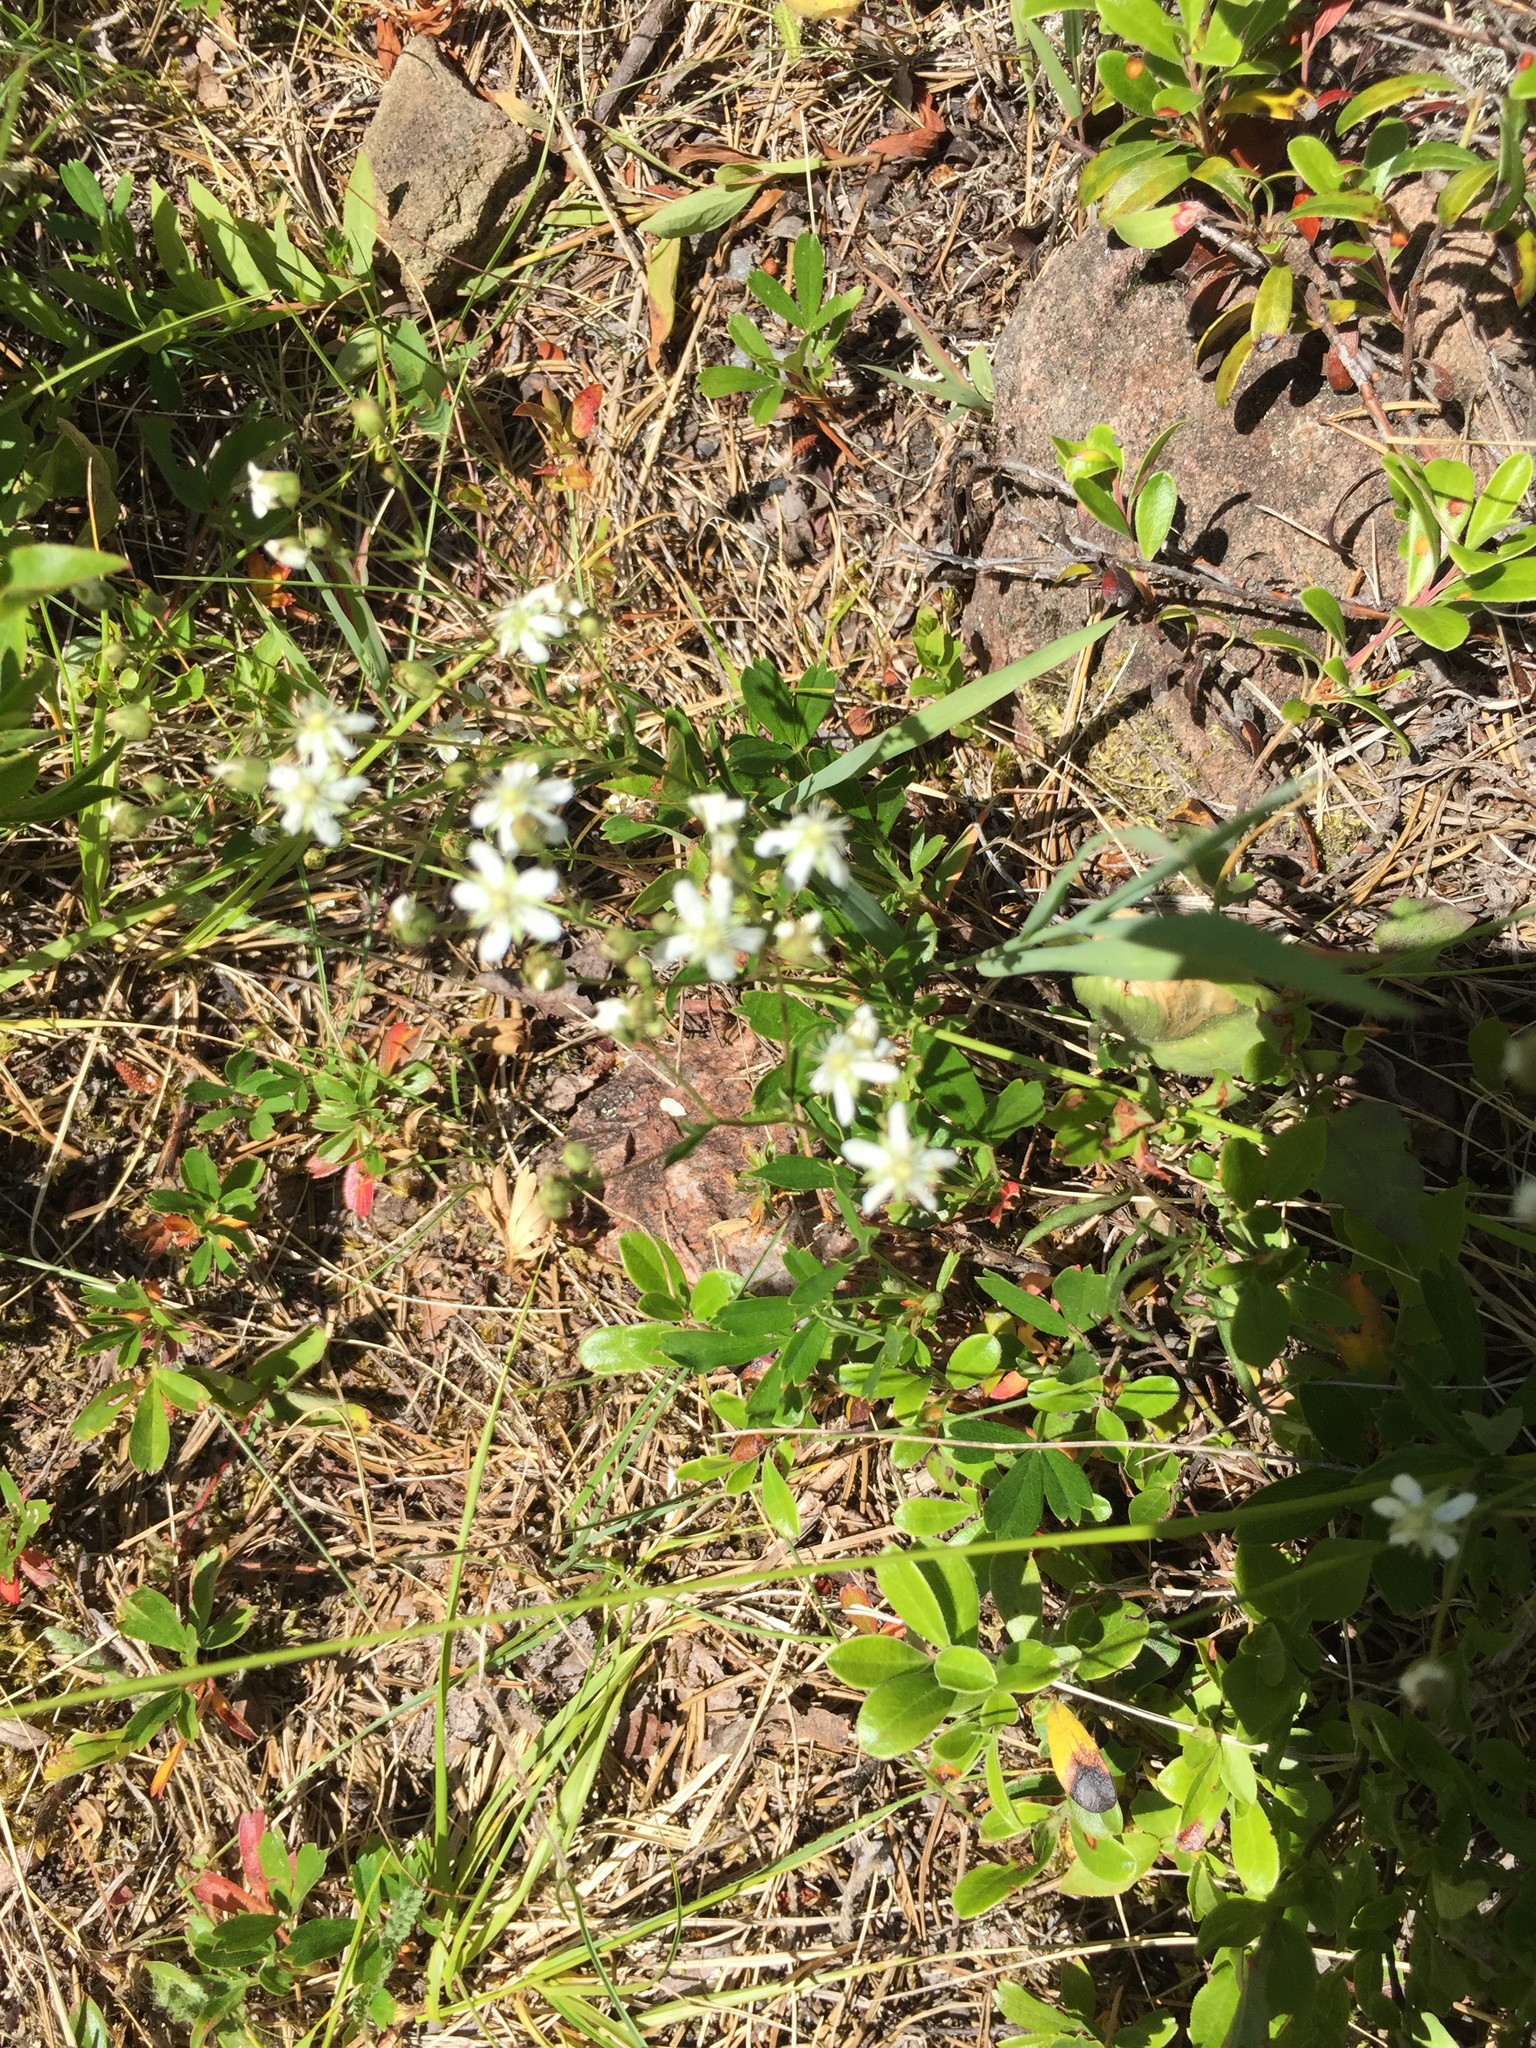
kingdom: Plantae
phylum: Tracheophyta
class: Magnoliopsida
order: Rosales
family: Rosaceae
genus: Sibbaldia
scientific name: Sibbaldia tridentata
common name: Three-toothed cinquefoil
